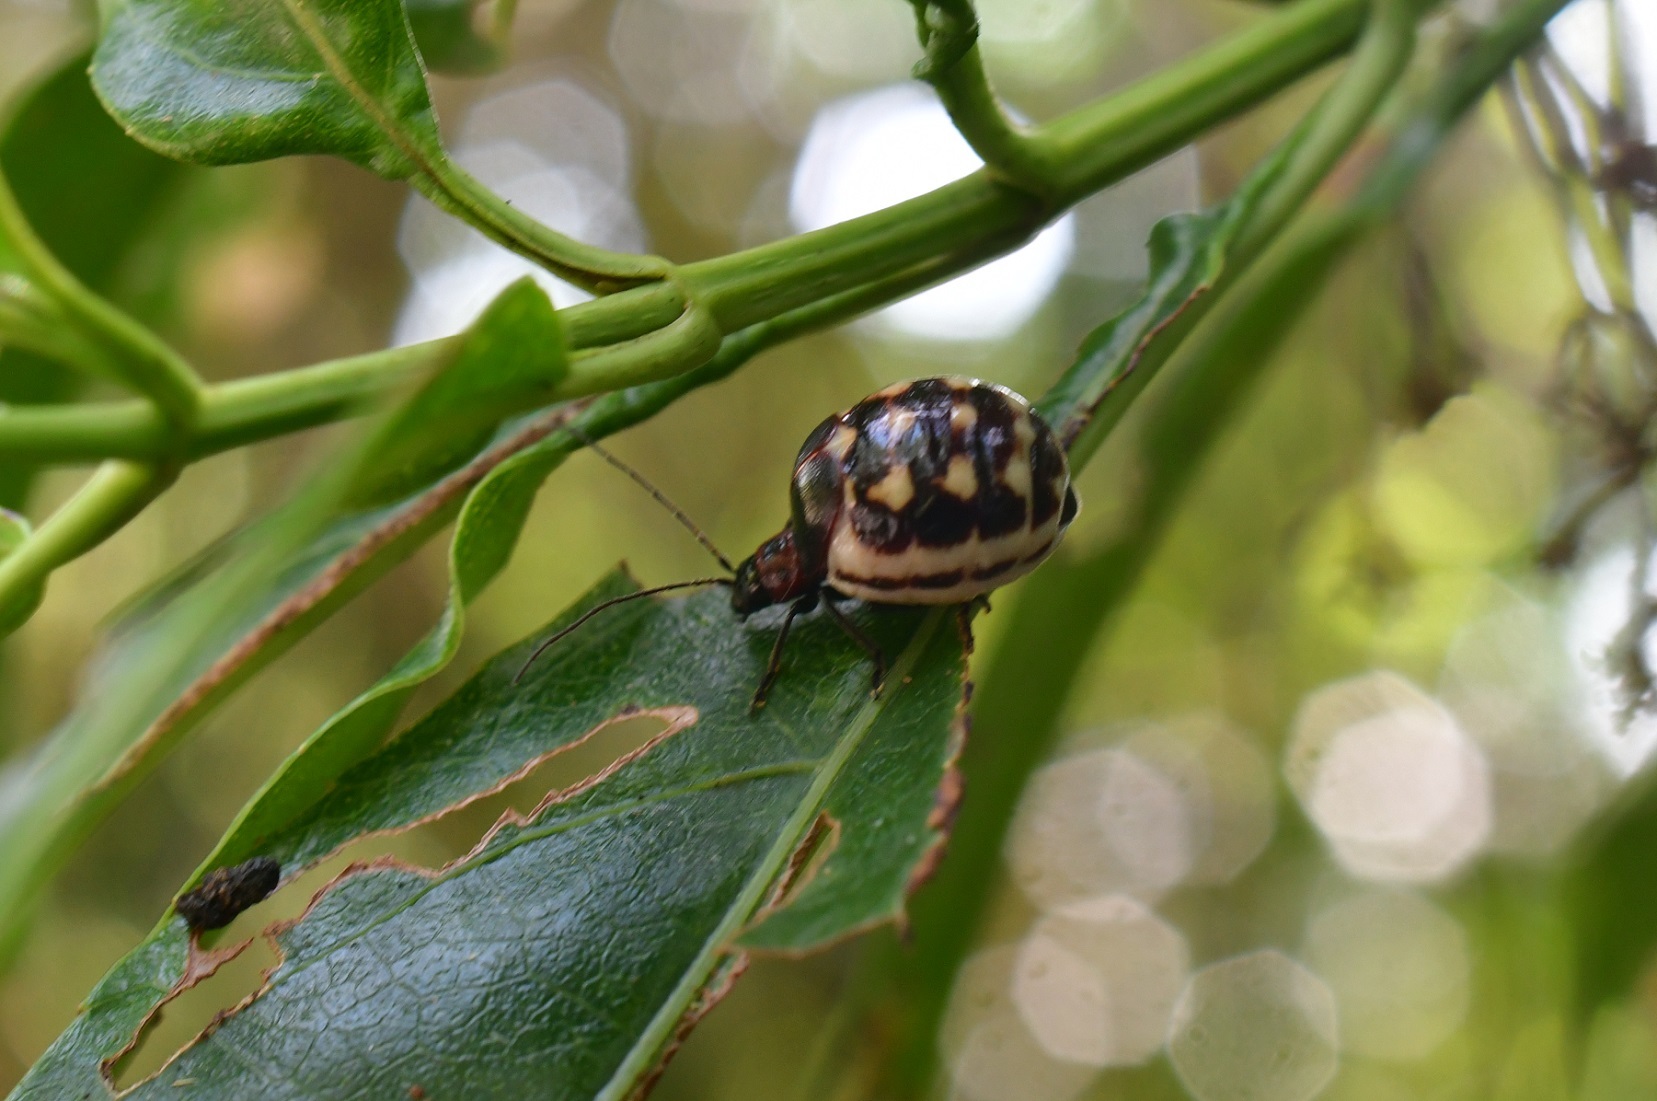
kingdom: Animalia
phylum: Arthropoda
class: Insecta
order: Coleoptera
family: Chrysomelidae
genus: Metacycla
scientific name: Metacycla
